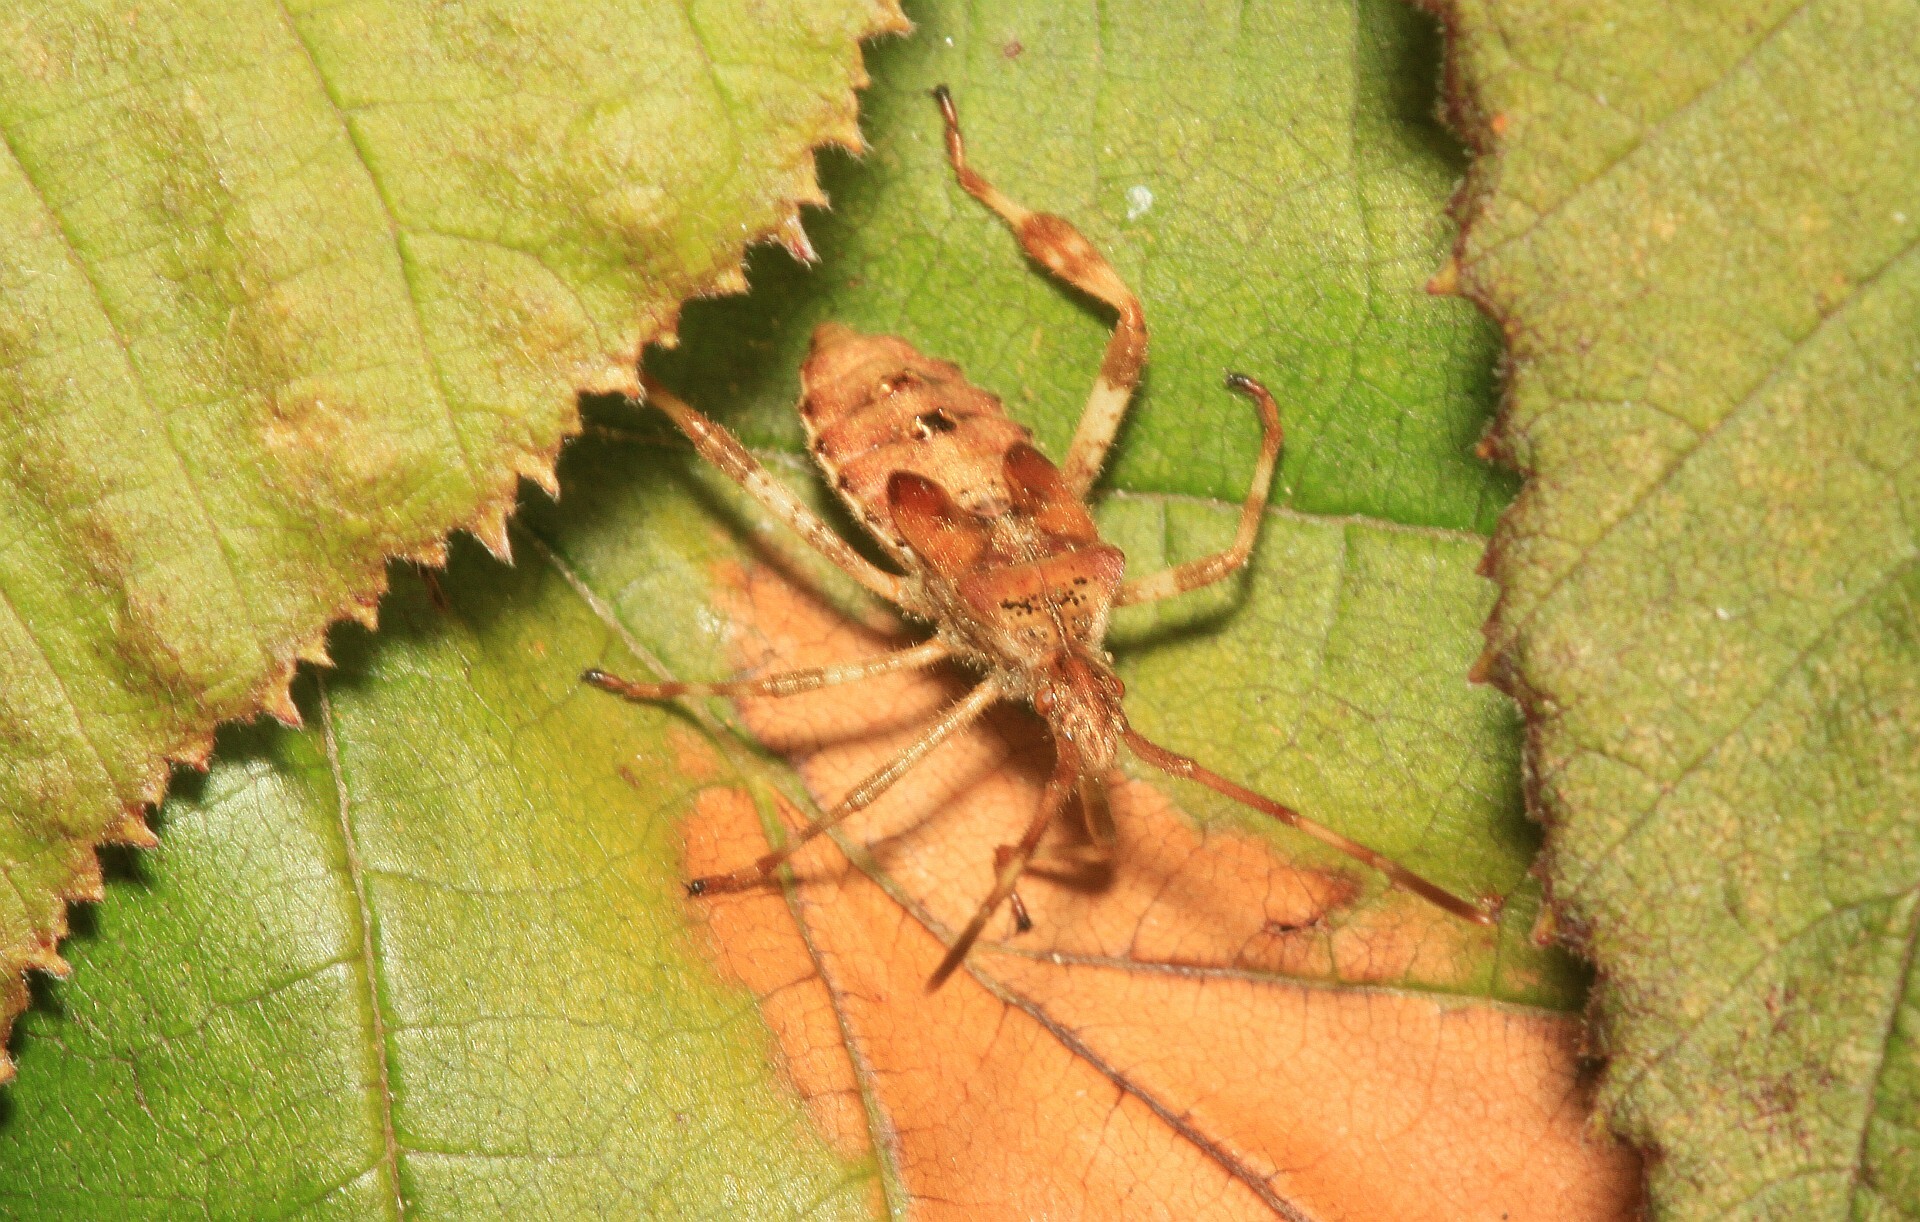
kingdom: Animalia
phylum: Arthropoda
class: Insecta
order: Hemiptera
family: Coreidae
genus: Leptoglossus
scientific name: Leptoglossus occidentalis
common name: Western conifer-seed bug
